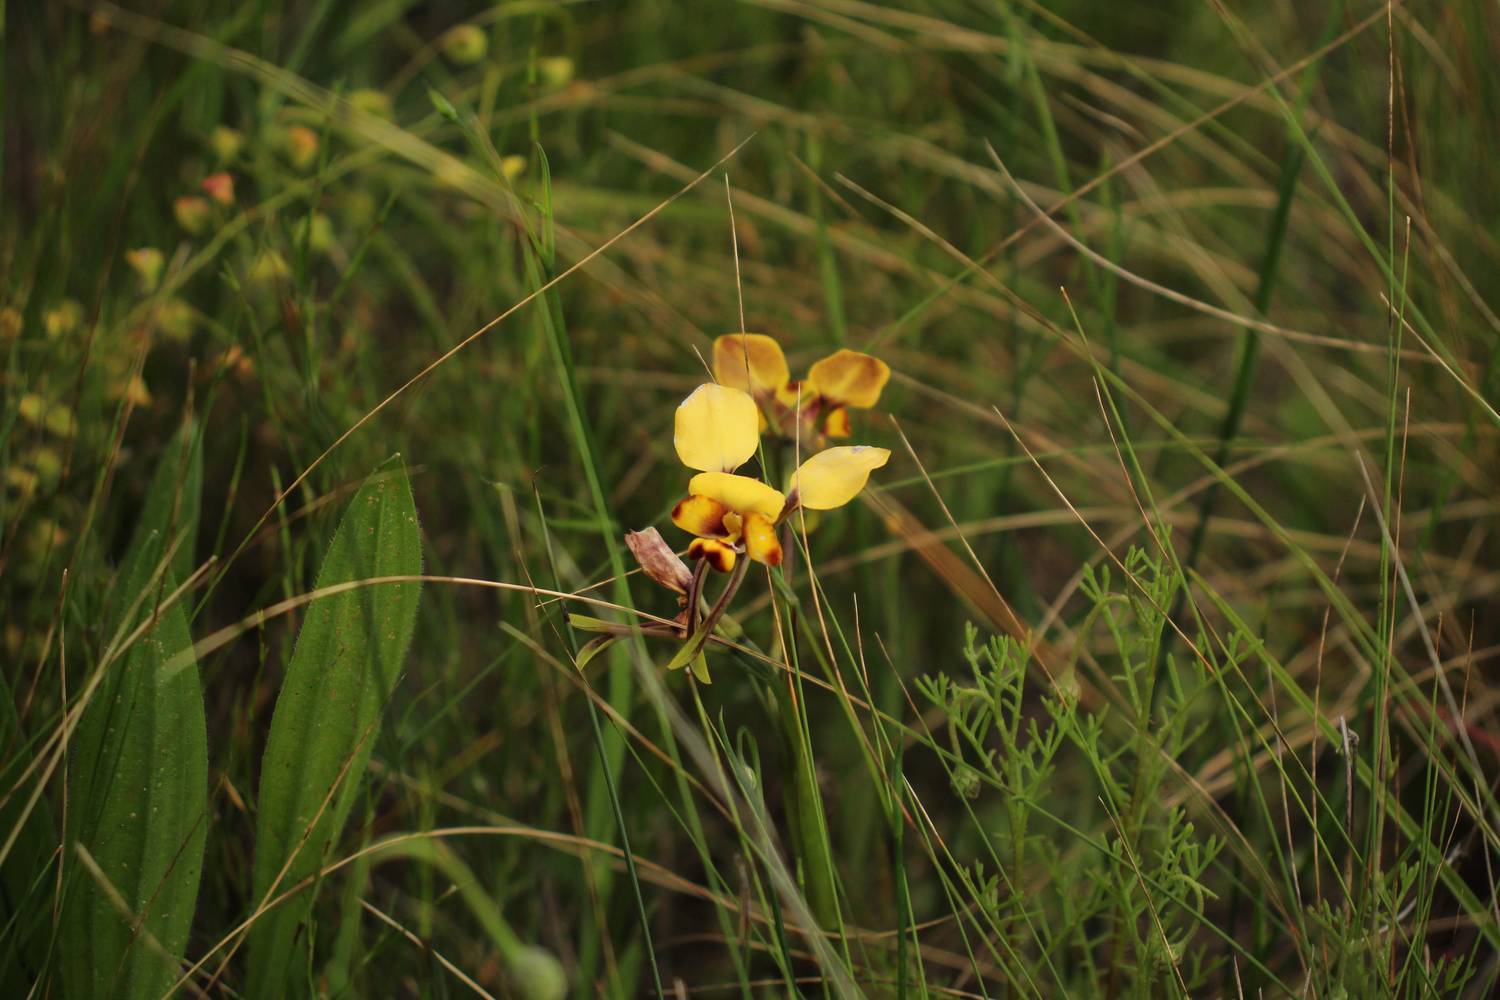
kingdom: Plantae
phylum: Tracheophyta
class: Liliopsida
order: Asparagales
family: Orchidaceae
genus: Diuris
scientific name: Diuris pulchella
